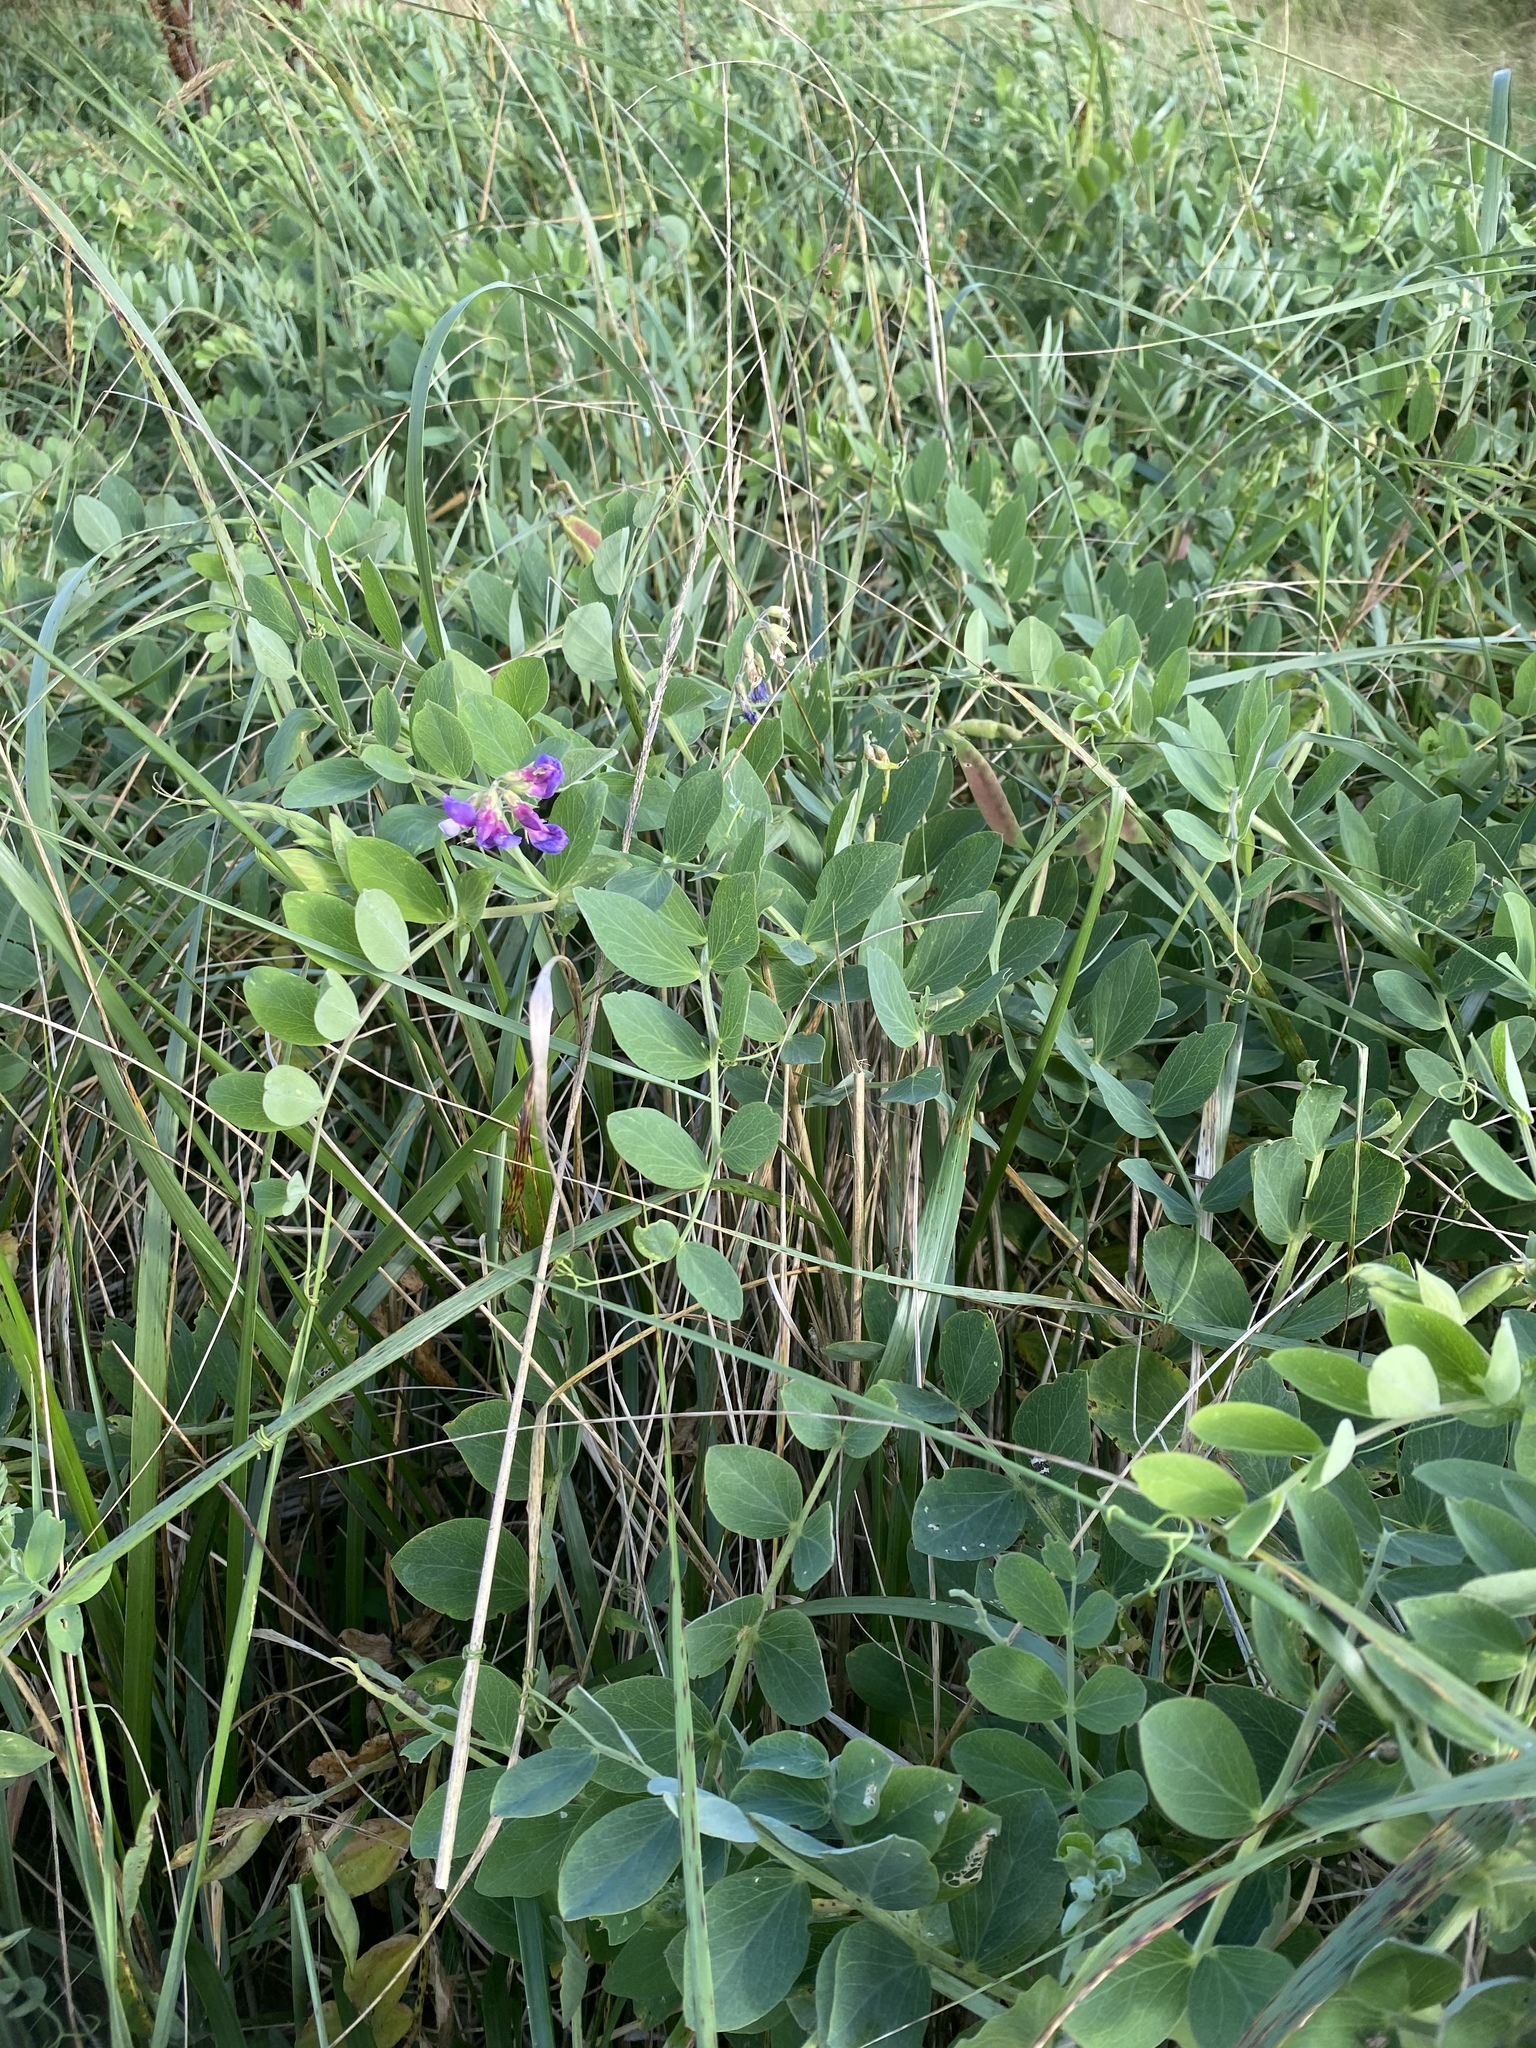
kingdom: Plantae
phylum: Tracheophyta
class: Magnoliopsida
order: Fabales
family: Fabaceae
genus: Lathyrus
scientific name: Lathyrus japonicus
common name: Sea pea
